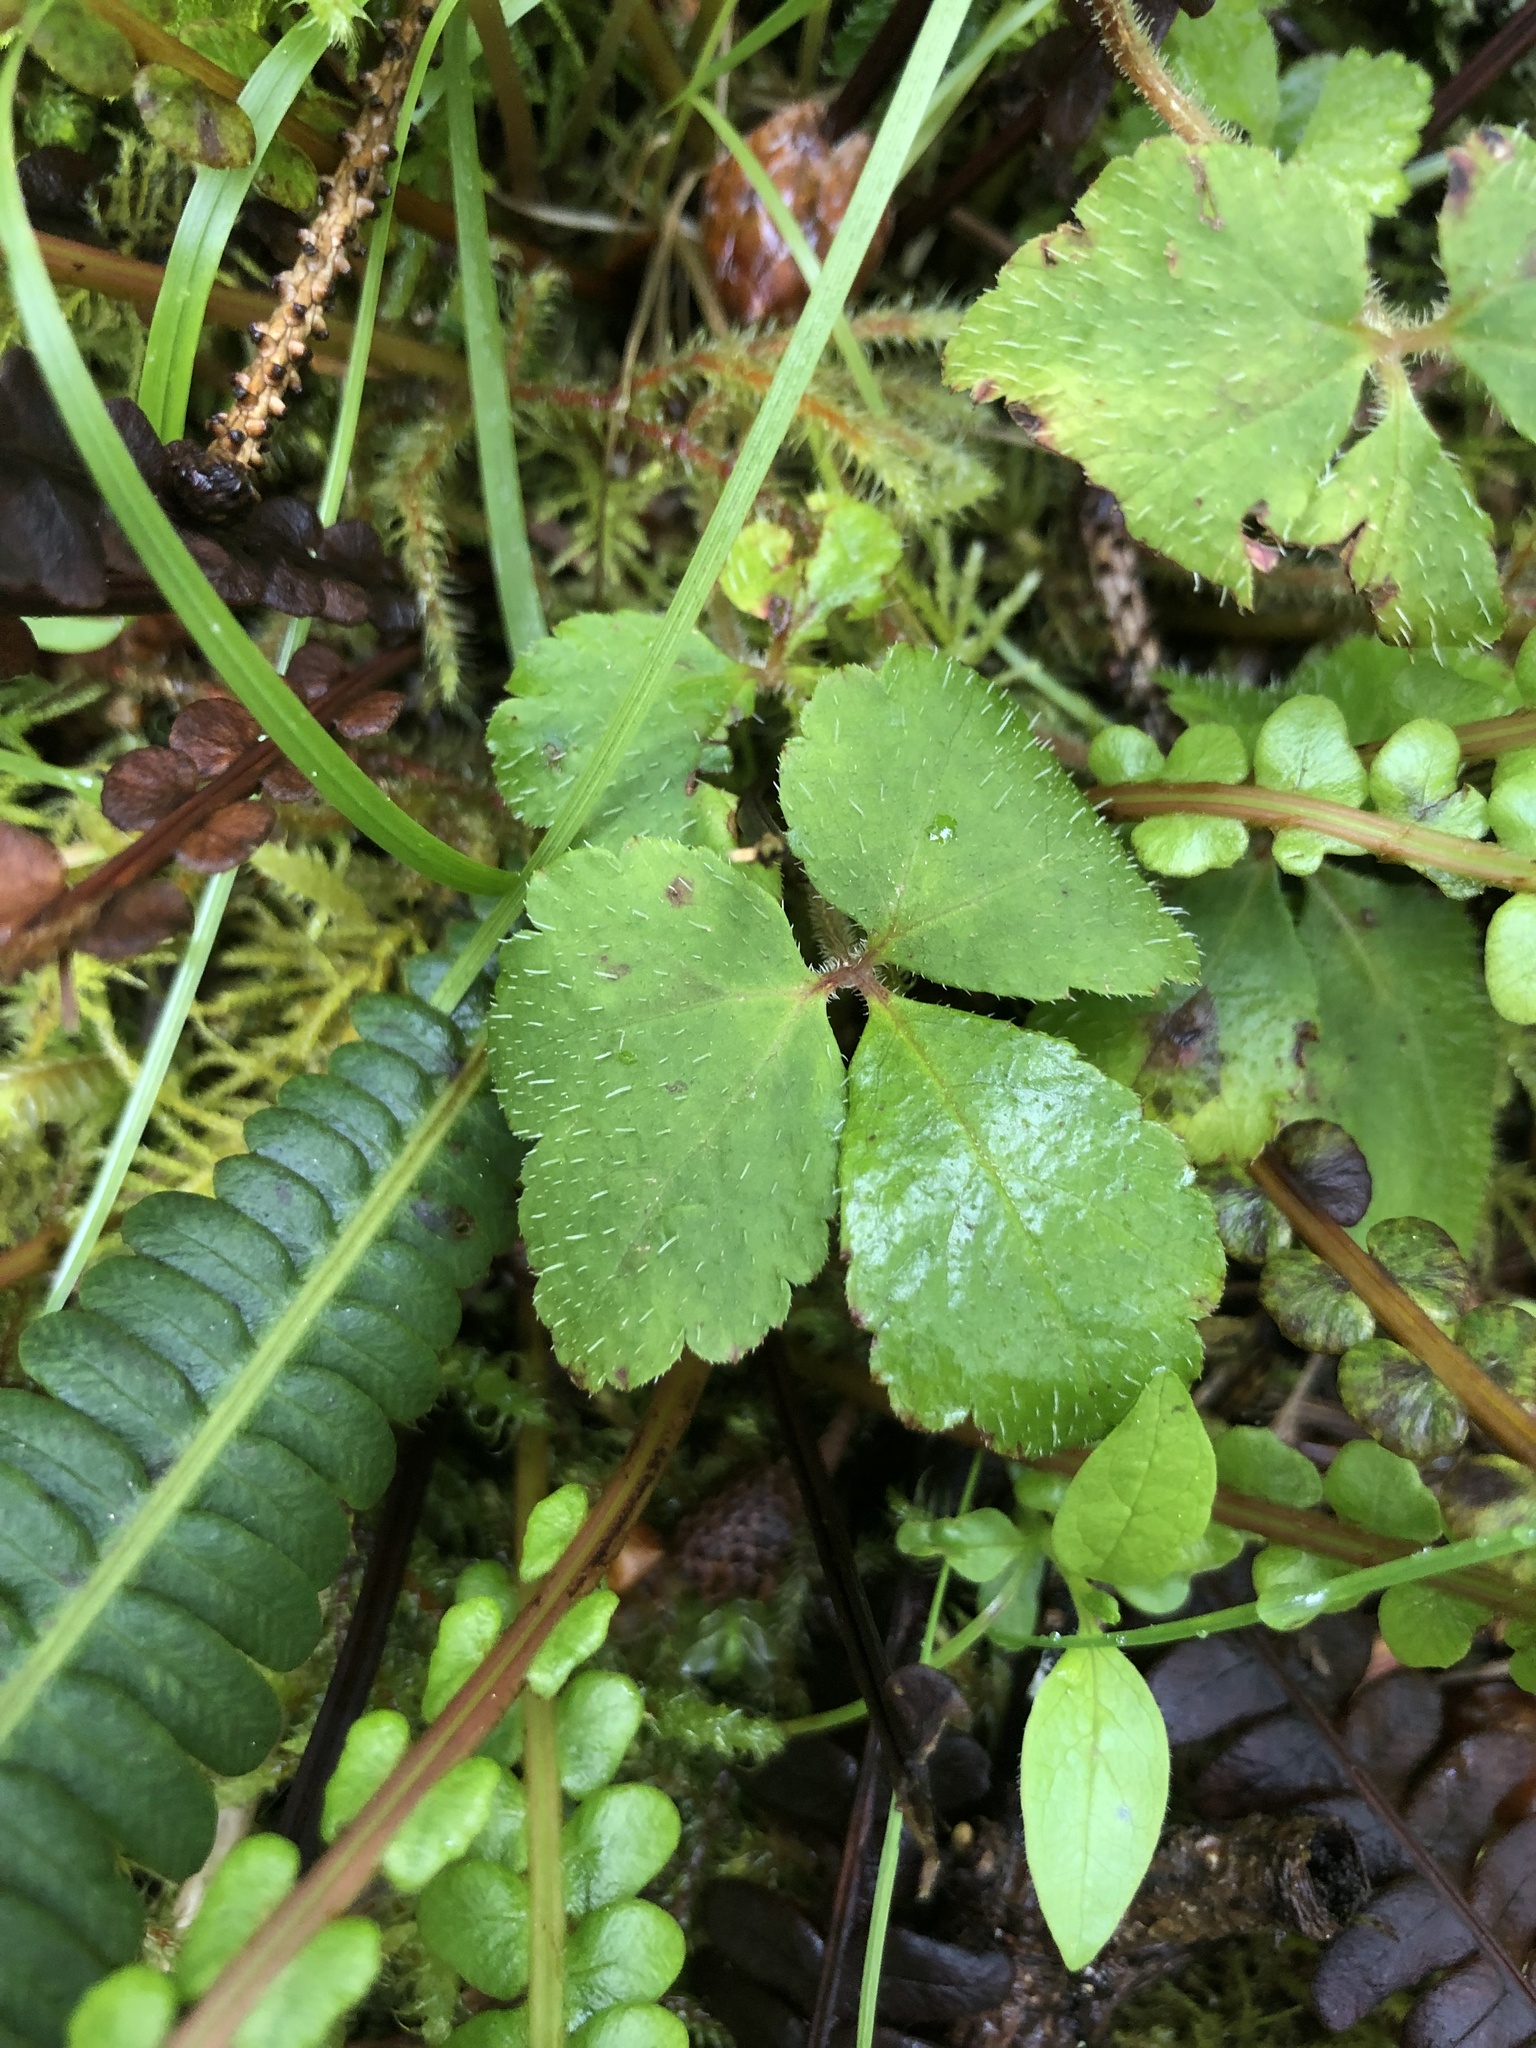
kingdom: Plantae
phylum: Tracheophyta
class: Magnoliopsida
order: Saxifragales
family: Saxifragaceae
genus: Tiarella
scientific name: Tiarella trifoliata
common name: Sugar-scoop
